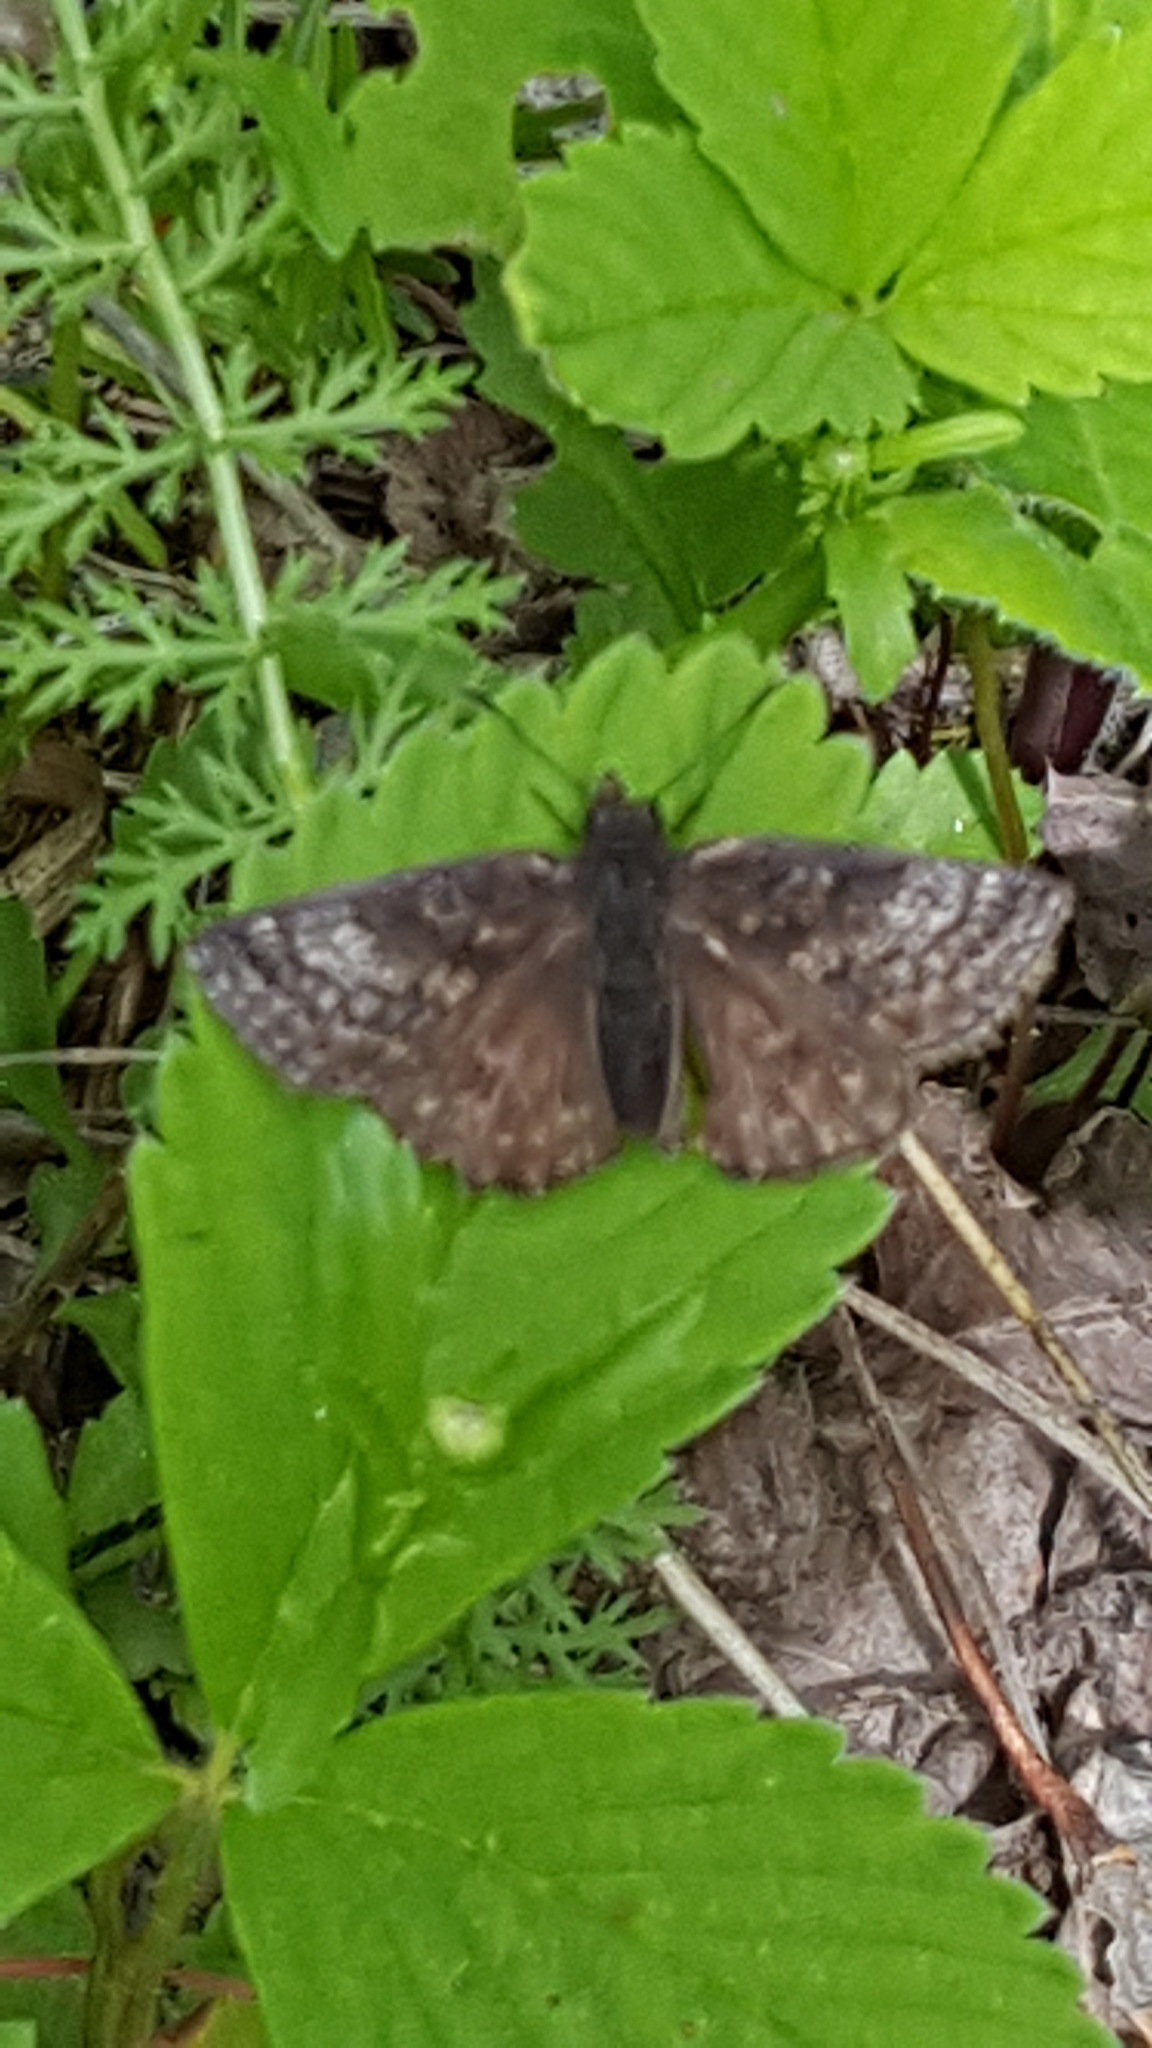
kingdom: Animalia
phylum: Arthropoda
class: Insecta
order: Lepidoptera
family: Hesperiidae
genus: Erynnis
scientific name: Erynnis icelus
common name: Dreamy duskywing
